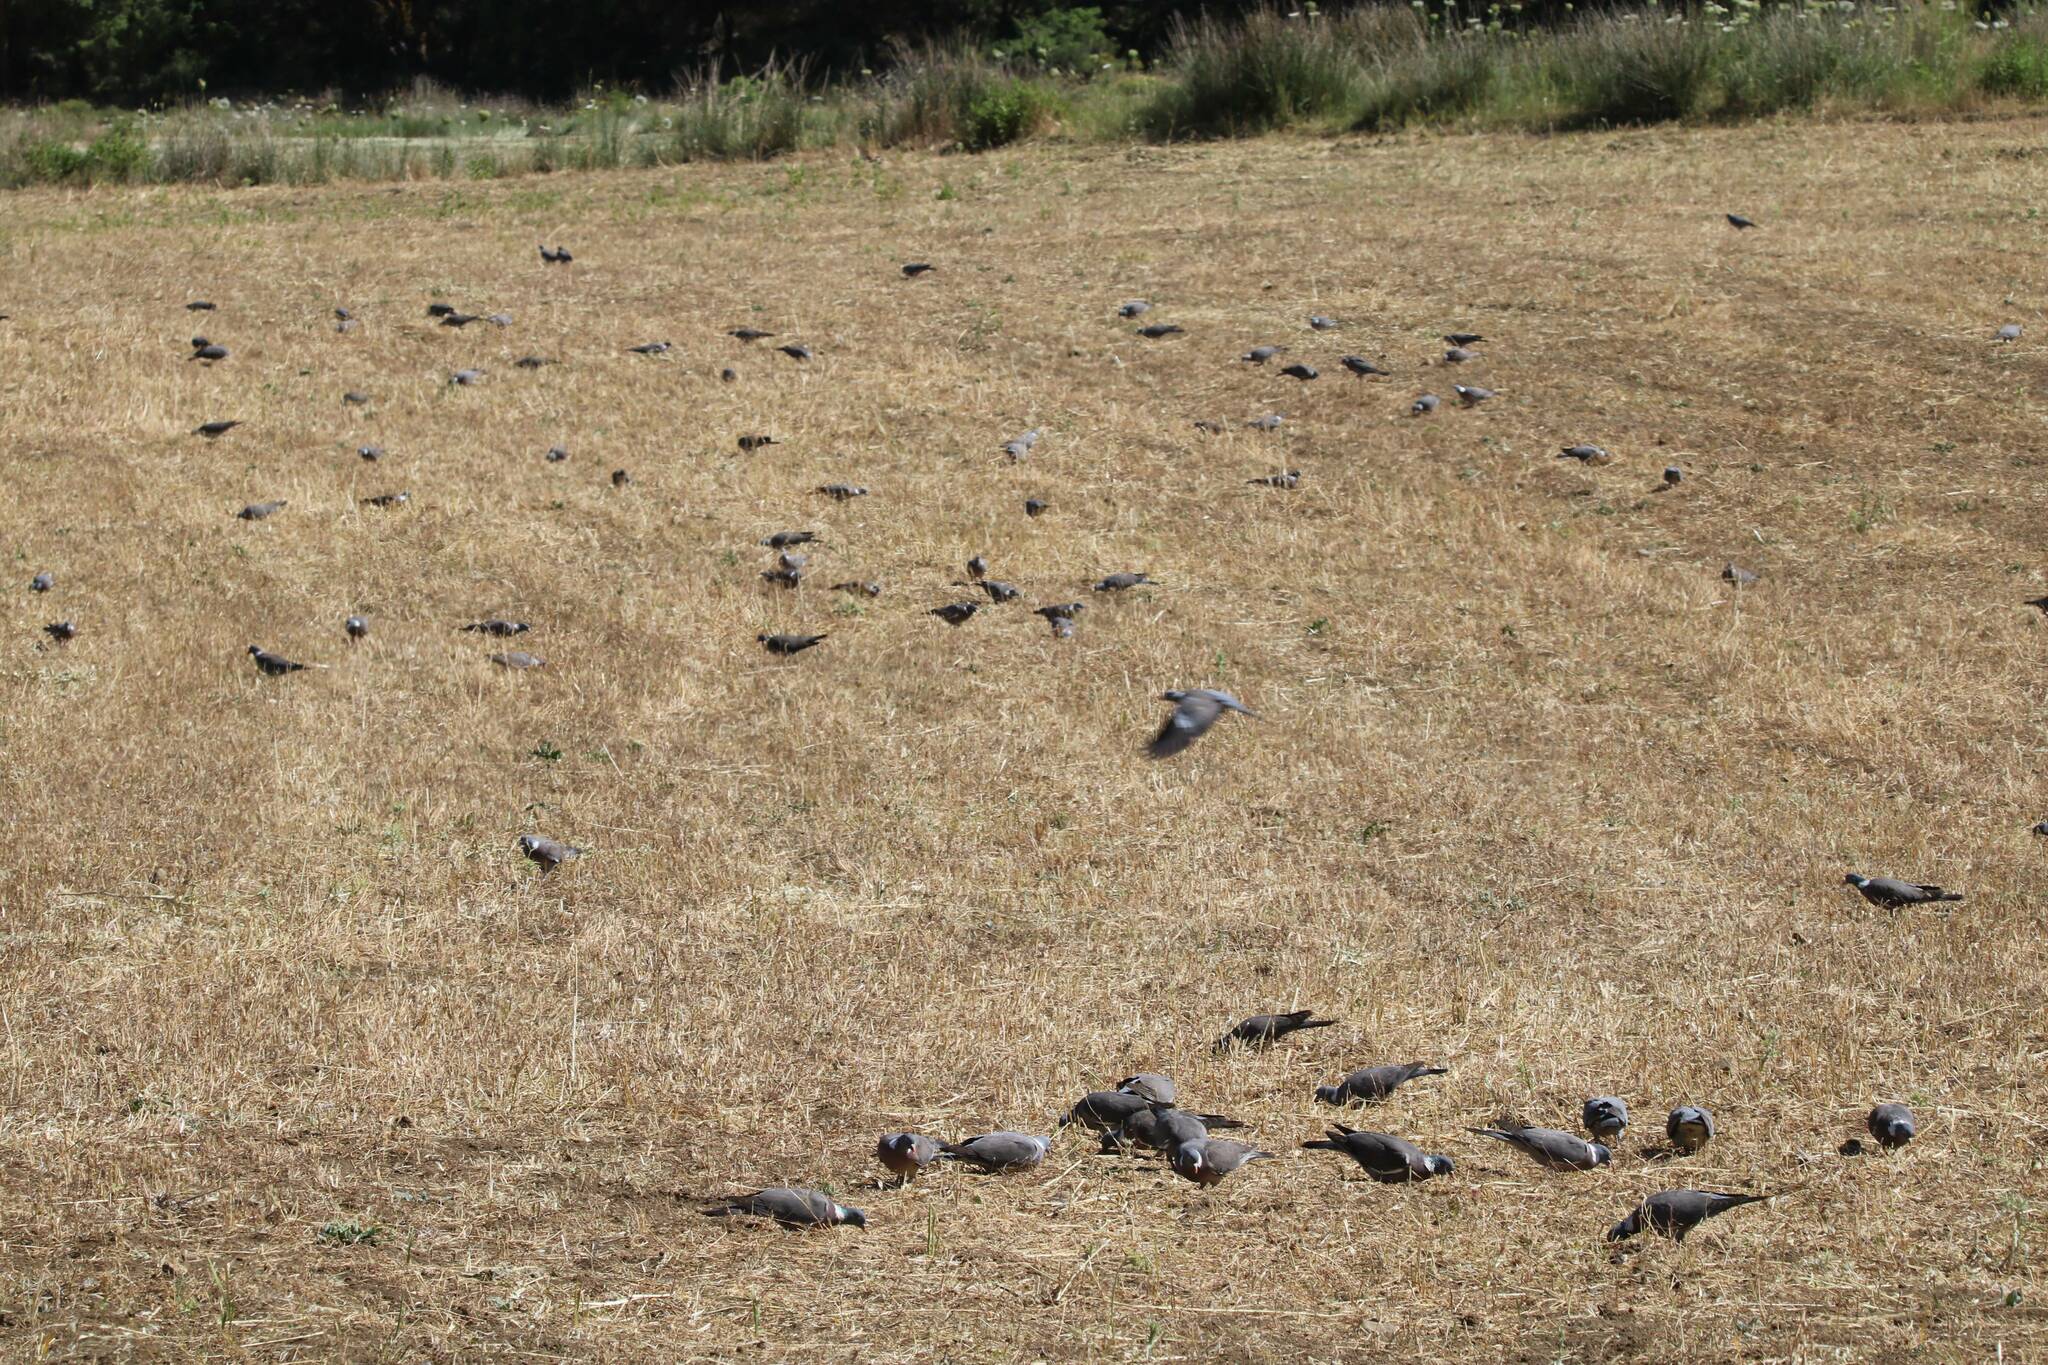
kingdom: Animalia
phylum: Chordata
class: Aves
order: Columbiformes
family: Columbidae
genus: Columba
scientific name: Columba palumbus
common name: Common wood pigeon
